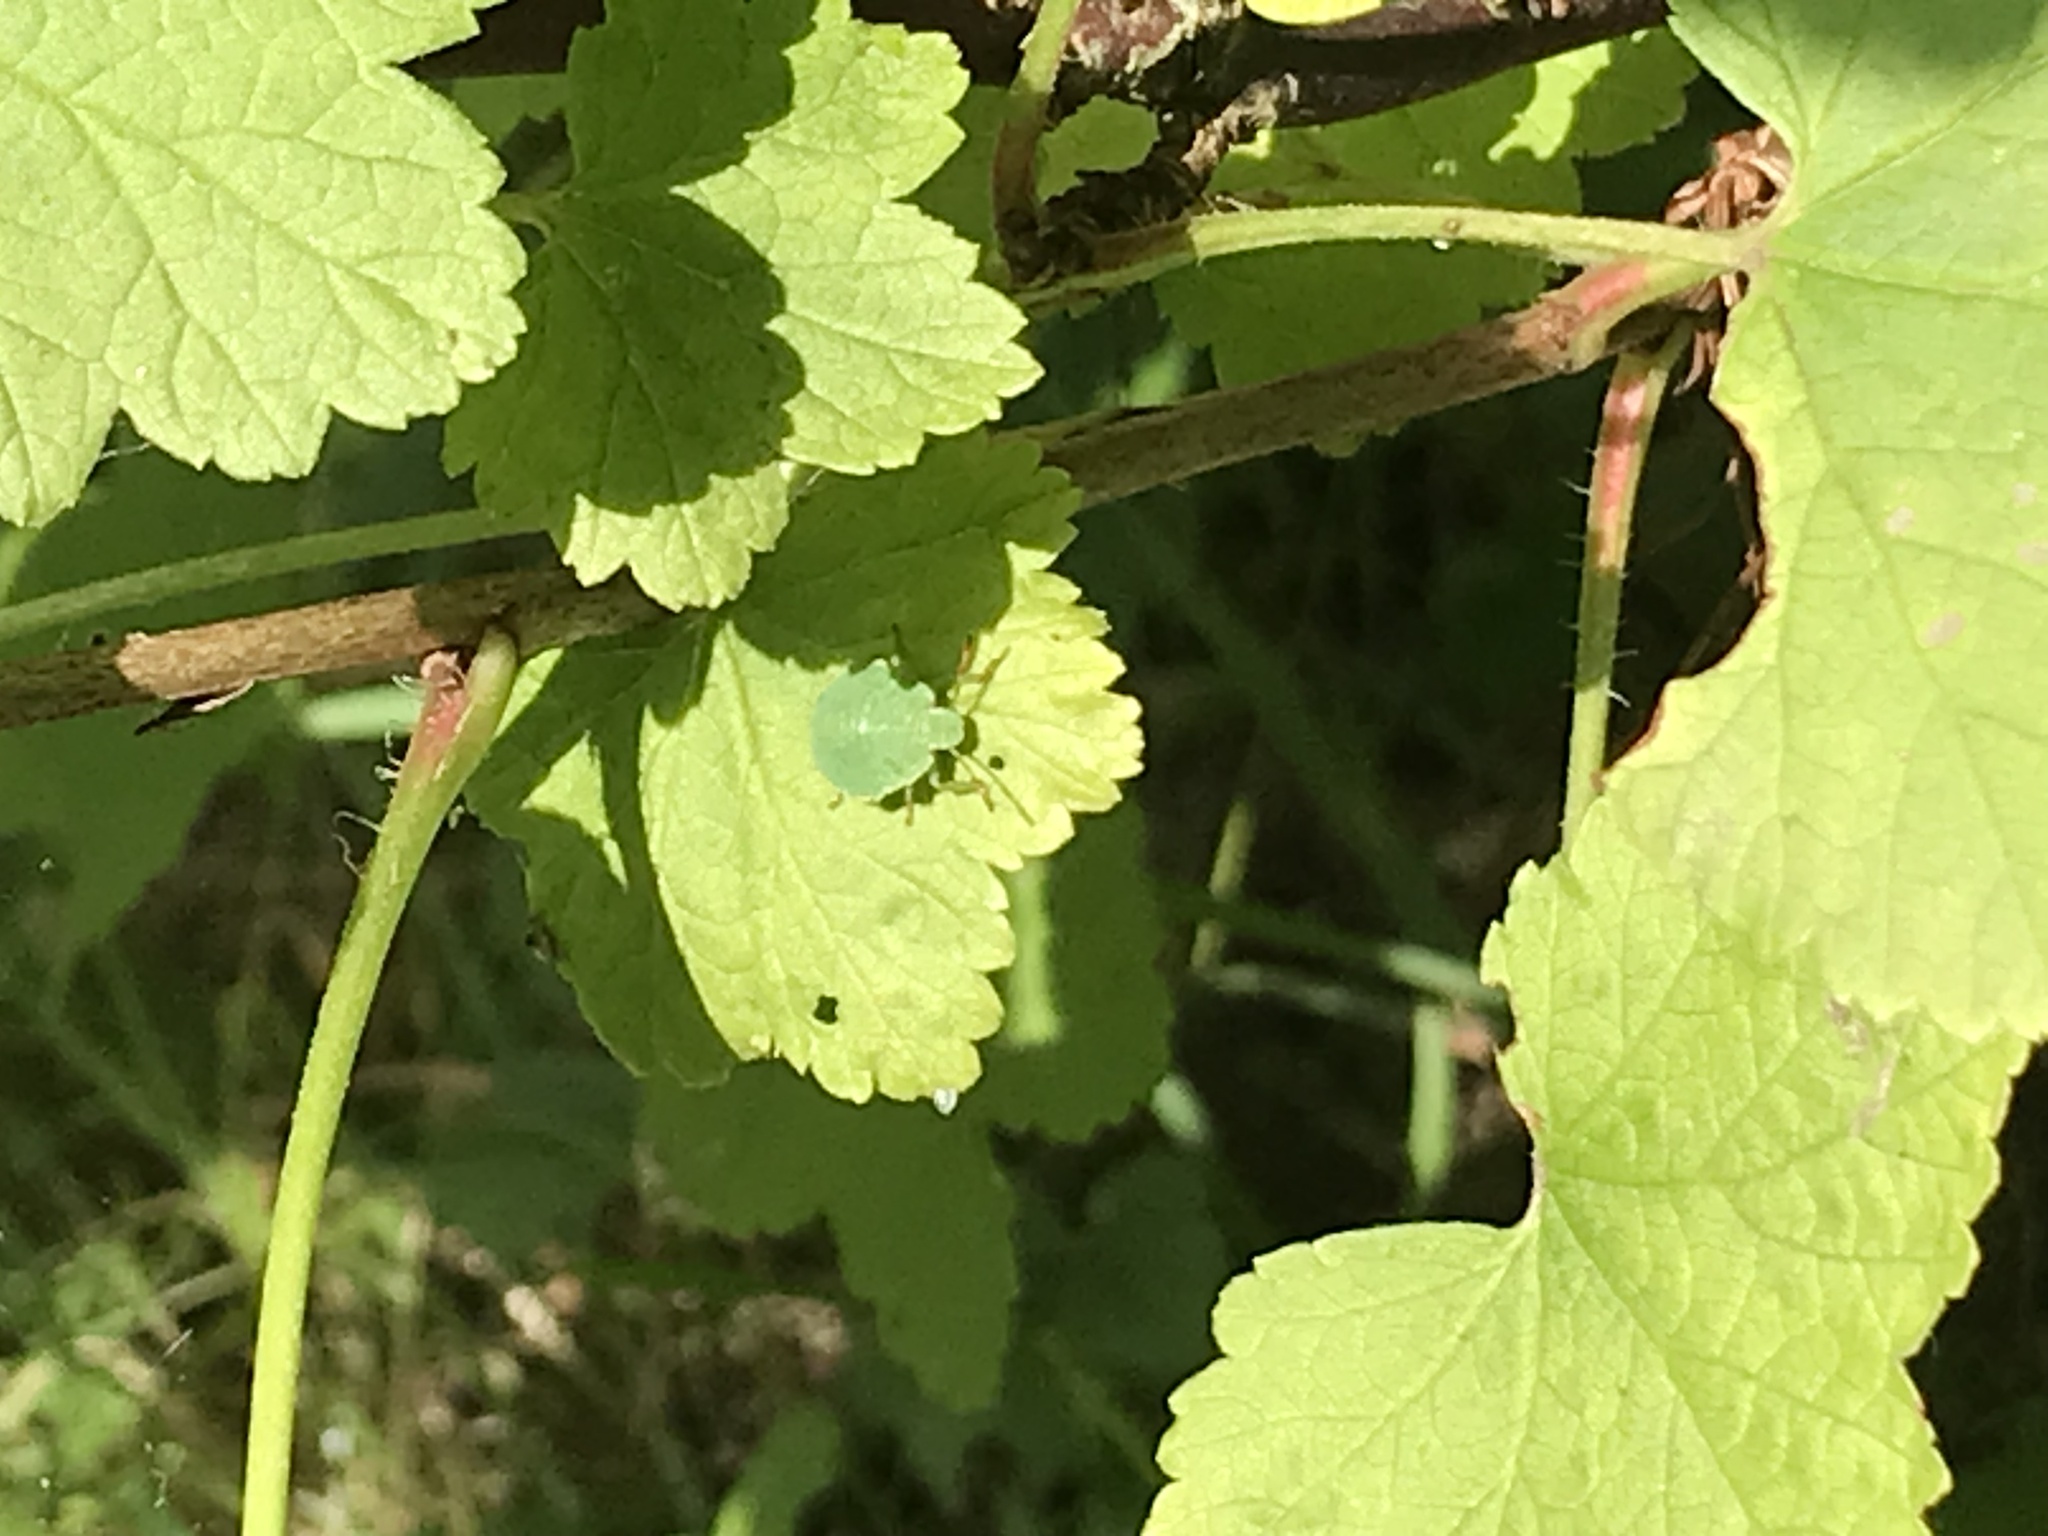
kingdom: Animalia
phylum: Arthropoda
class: Insecta
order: Hemiptera
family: Pentatomidae
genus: Palomena
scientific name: Palomena prasina
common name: Green shieldbug
